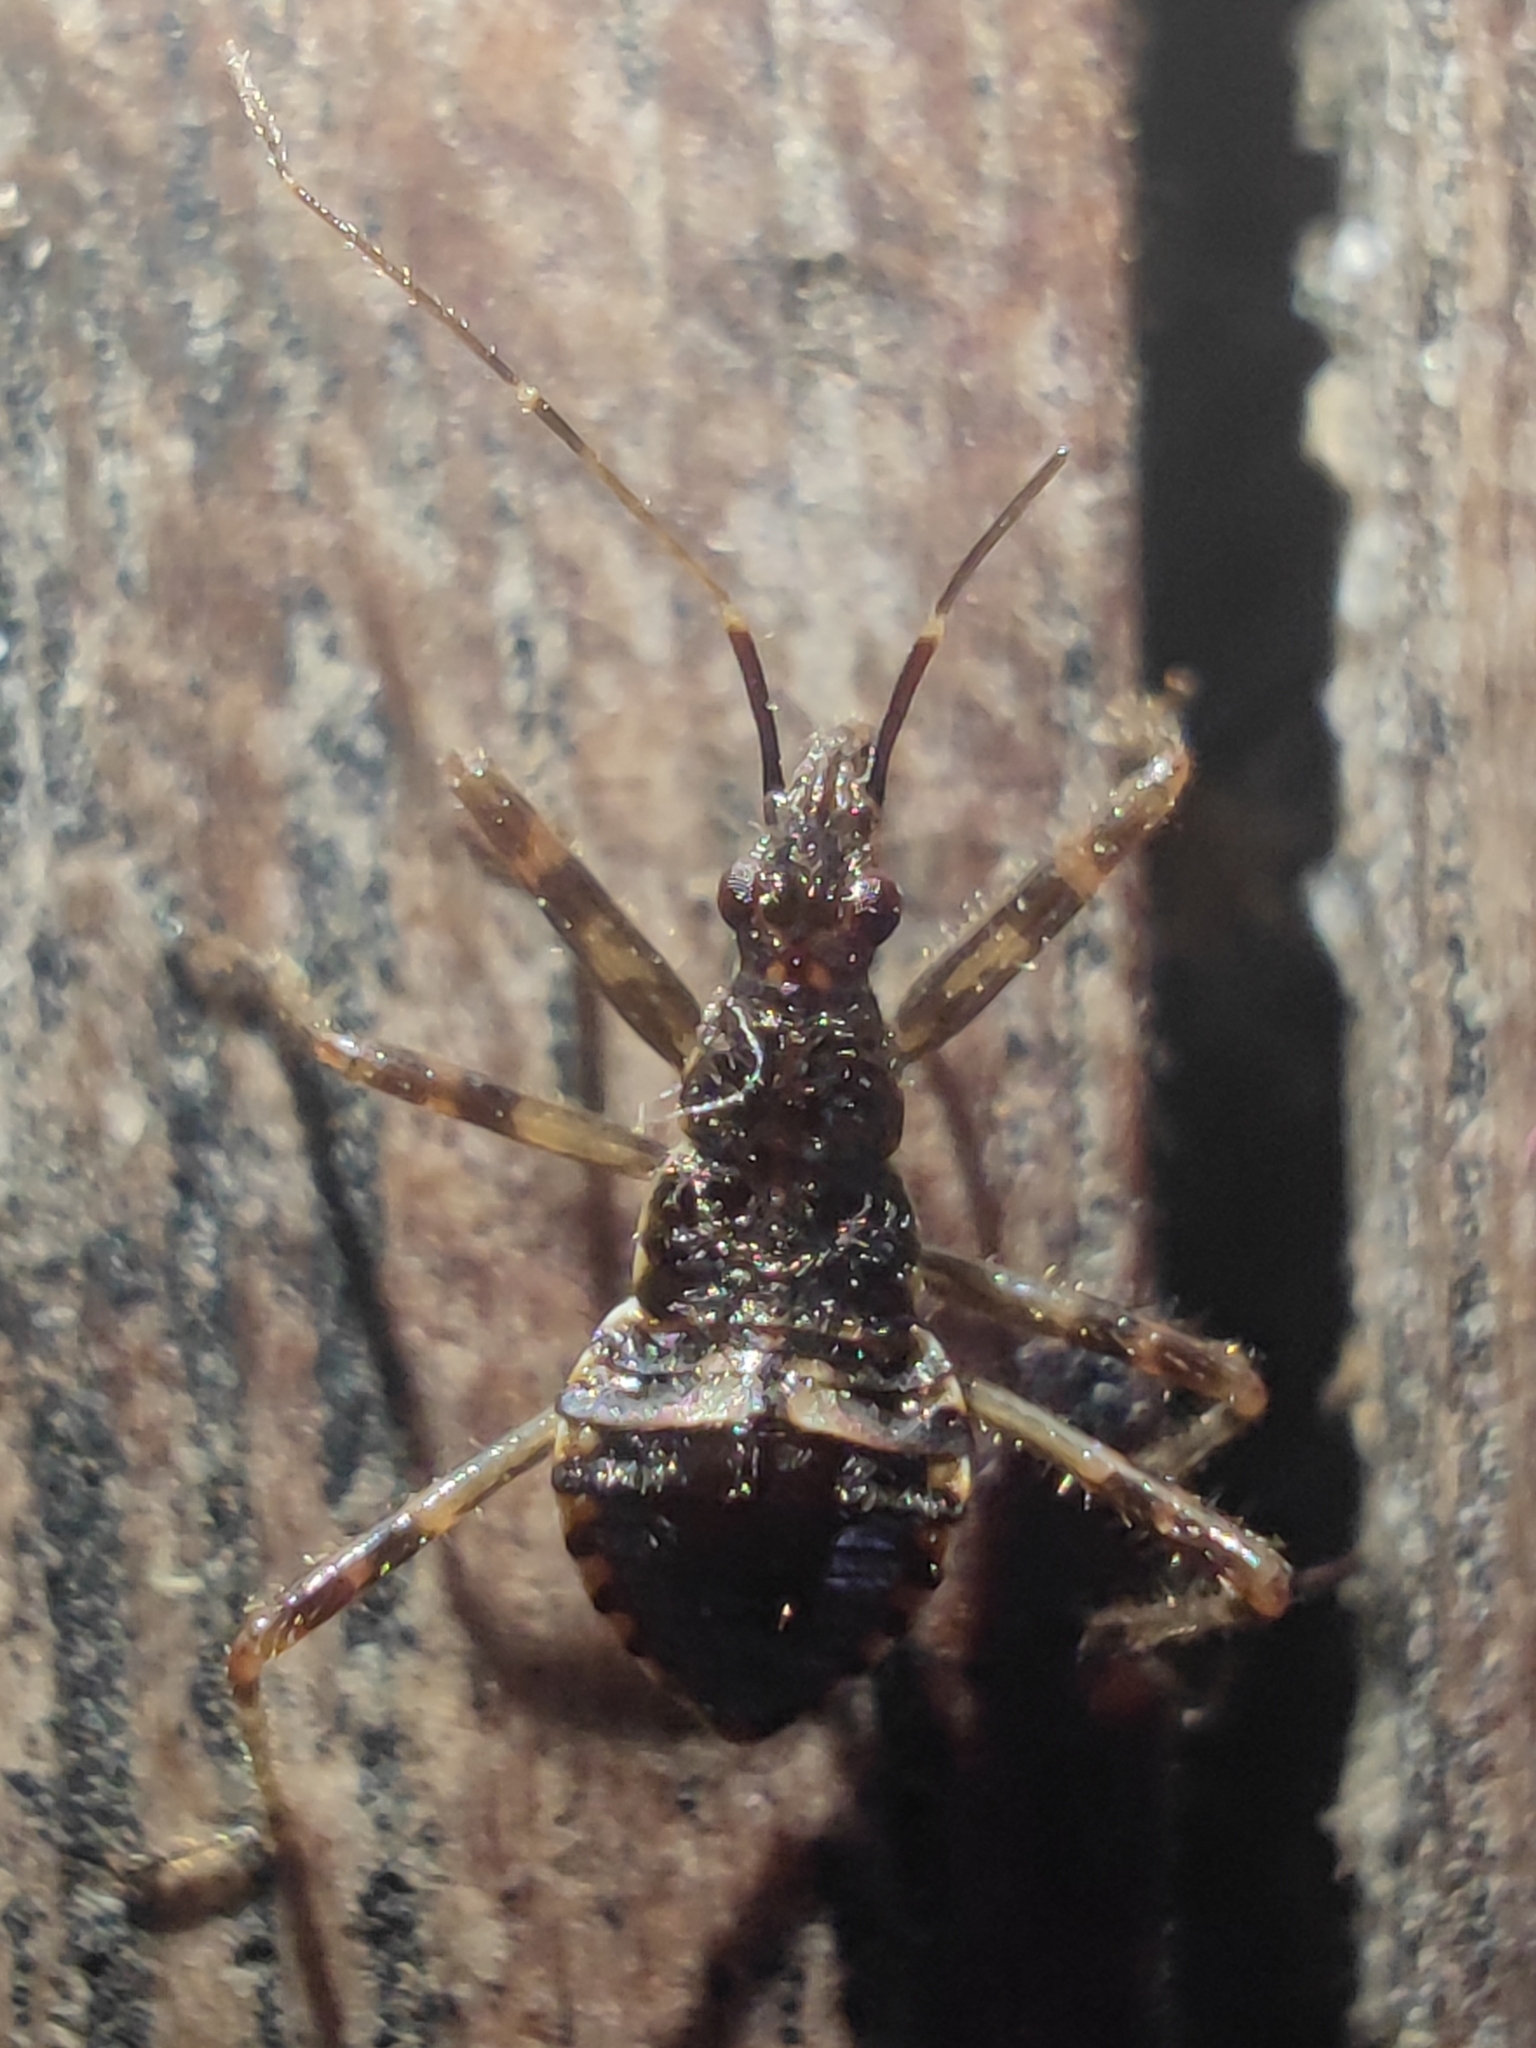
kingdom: Animalia
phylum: Arthropoda
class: Insecta
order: Hemiptera
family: Nabidae
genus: Himacerus
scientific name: Himacerus apterus
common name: Tree damsel bug
